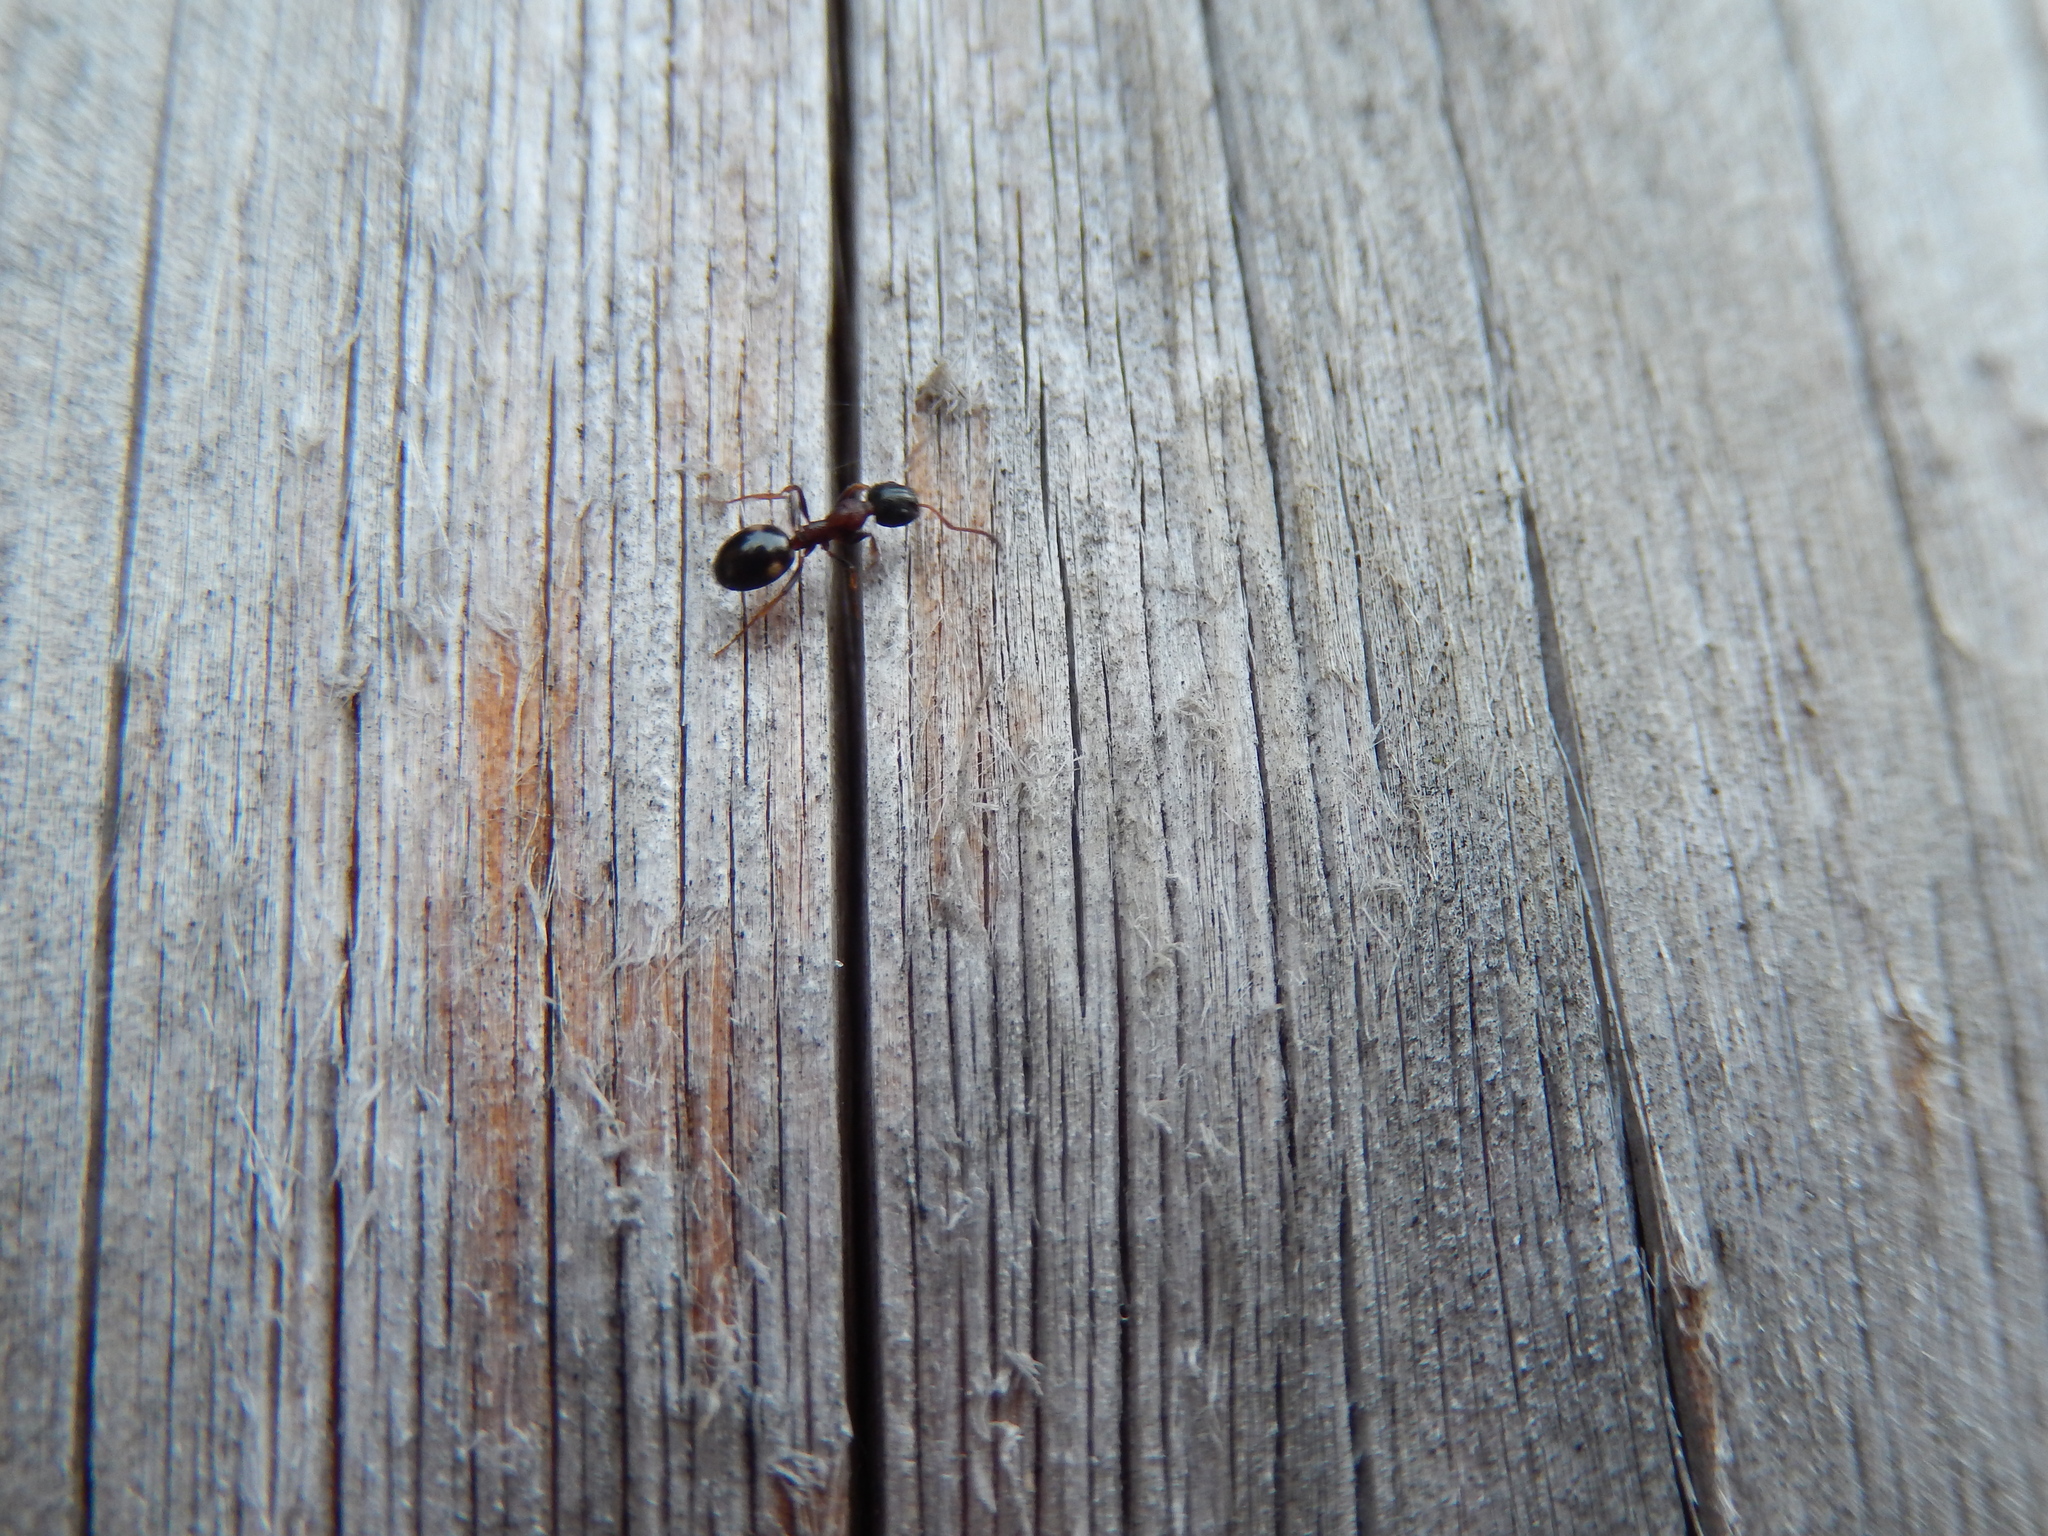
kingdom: Animalia
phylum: Arthropoda
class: Insecta
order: Hymenoptera
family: Formicidae
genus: Dolichoderus
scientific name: Dolichoderus quadripunctatus
